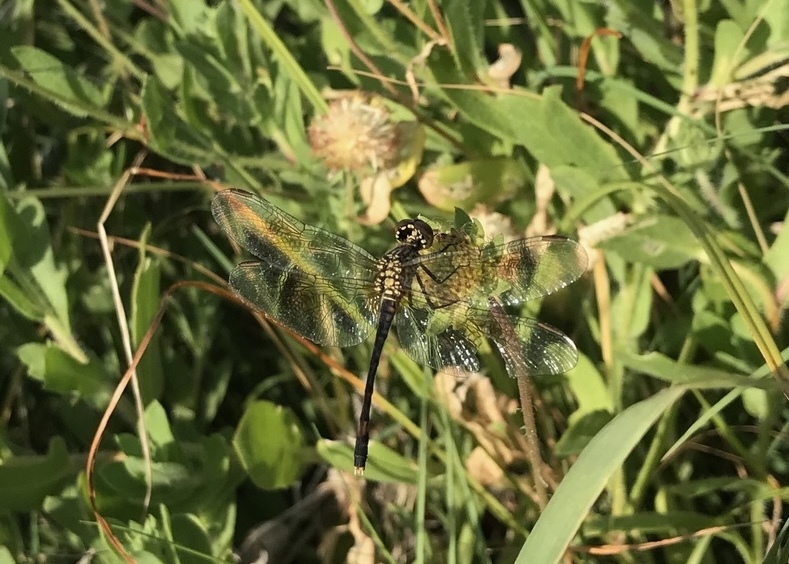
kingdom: Animalia
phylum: Arthropoda
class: Insecta
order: Odonata
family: Libellulidae
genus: Erythrodiplax
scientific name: Erythrodiplax berenice
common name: Seaside dragonlet
